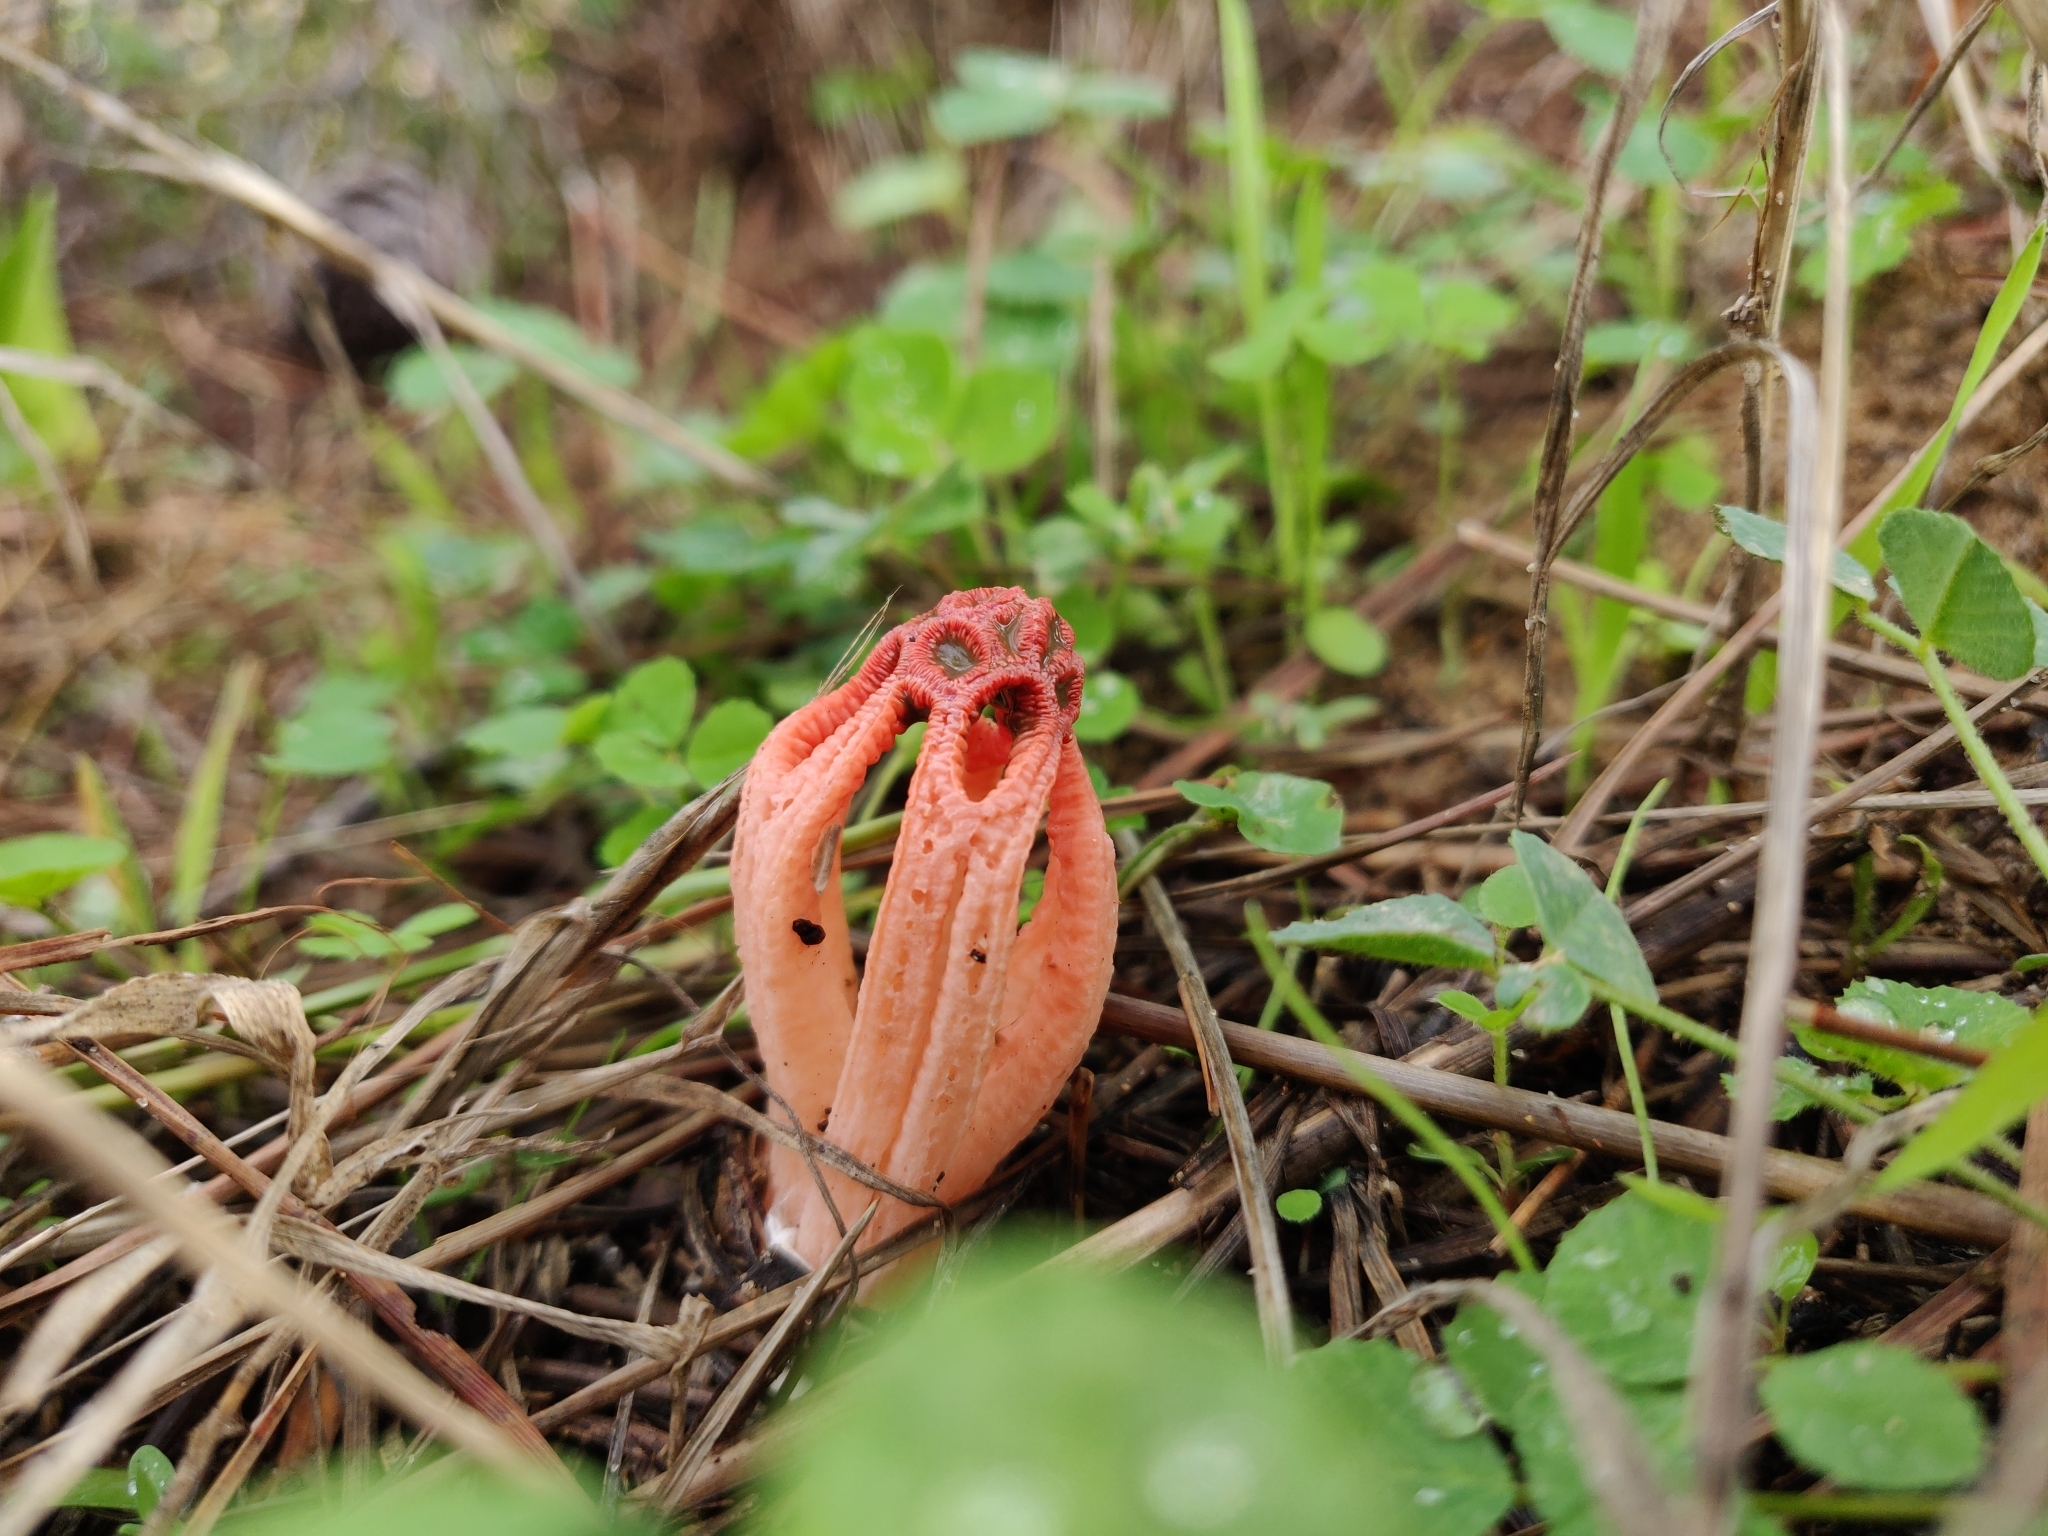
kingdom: Fungi
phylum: Basidiomycota
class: Agaricomycetes
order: Phallales
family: Phallaceae
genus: Colus
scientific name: Colus hirudinosus
